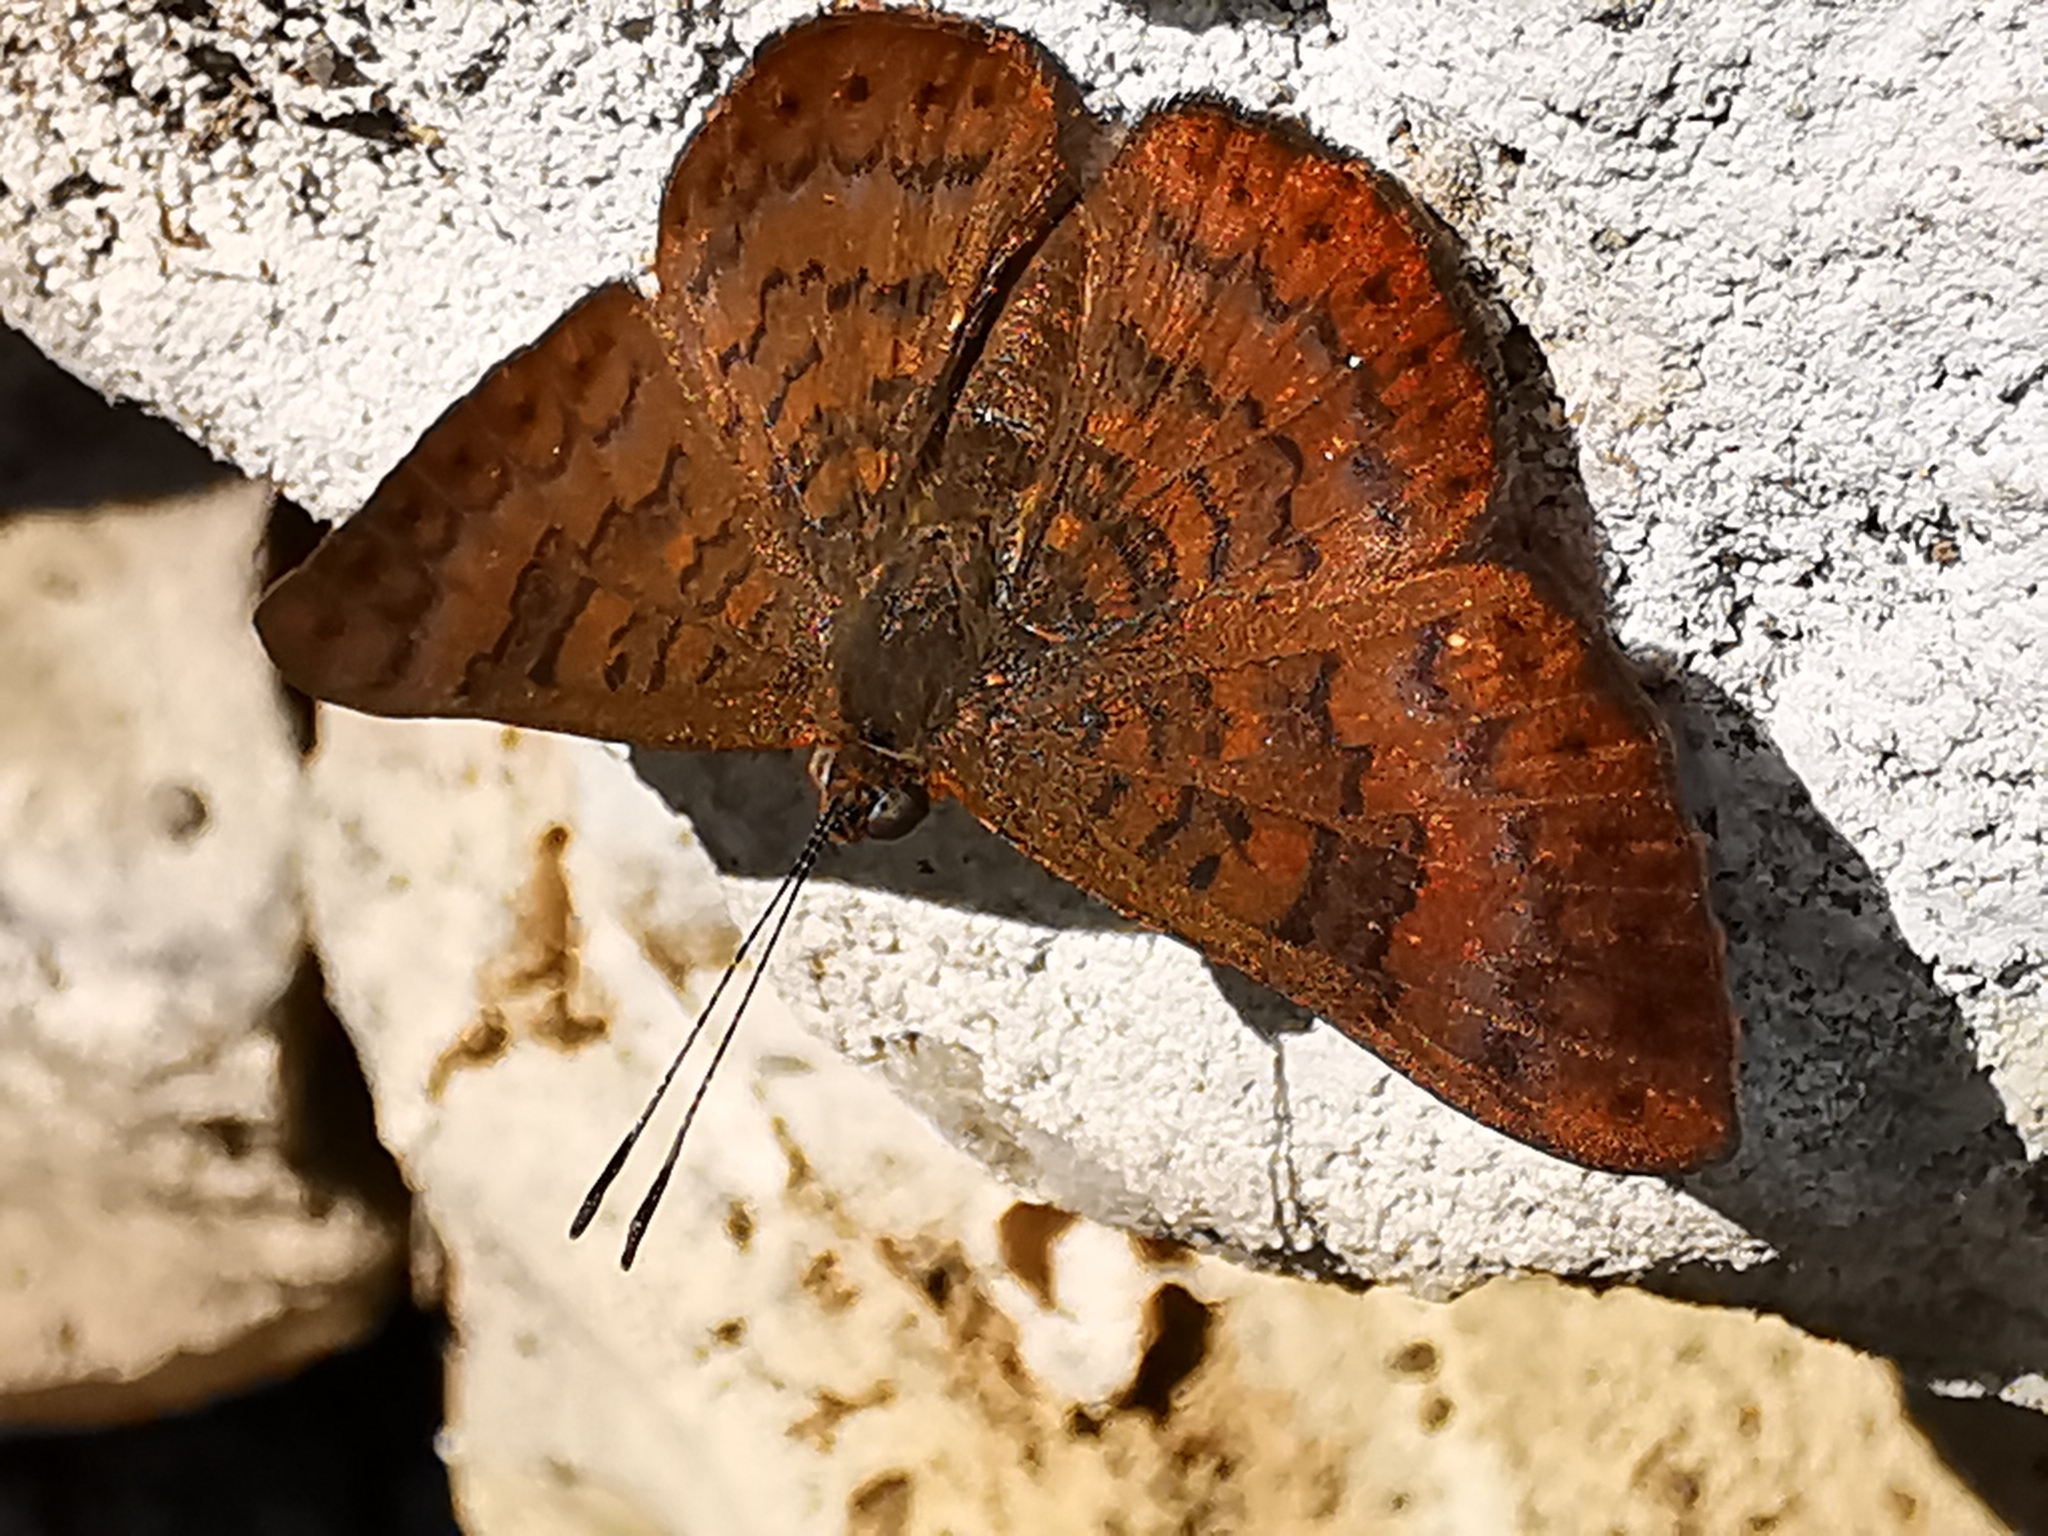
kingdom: Animalia
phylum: Arthropoda
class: Insecta
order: Lepidoptera
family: Lycaenidae
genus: Emesis
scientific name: Emesis tenedia
